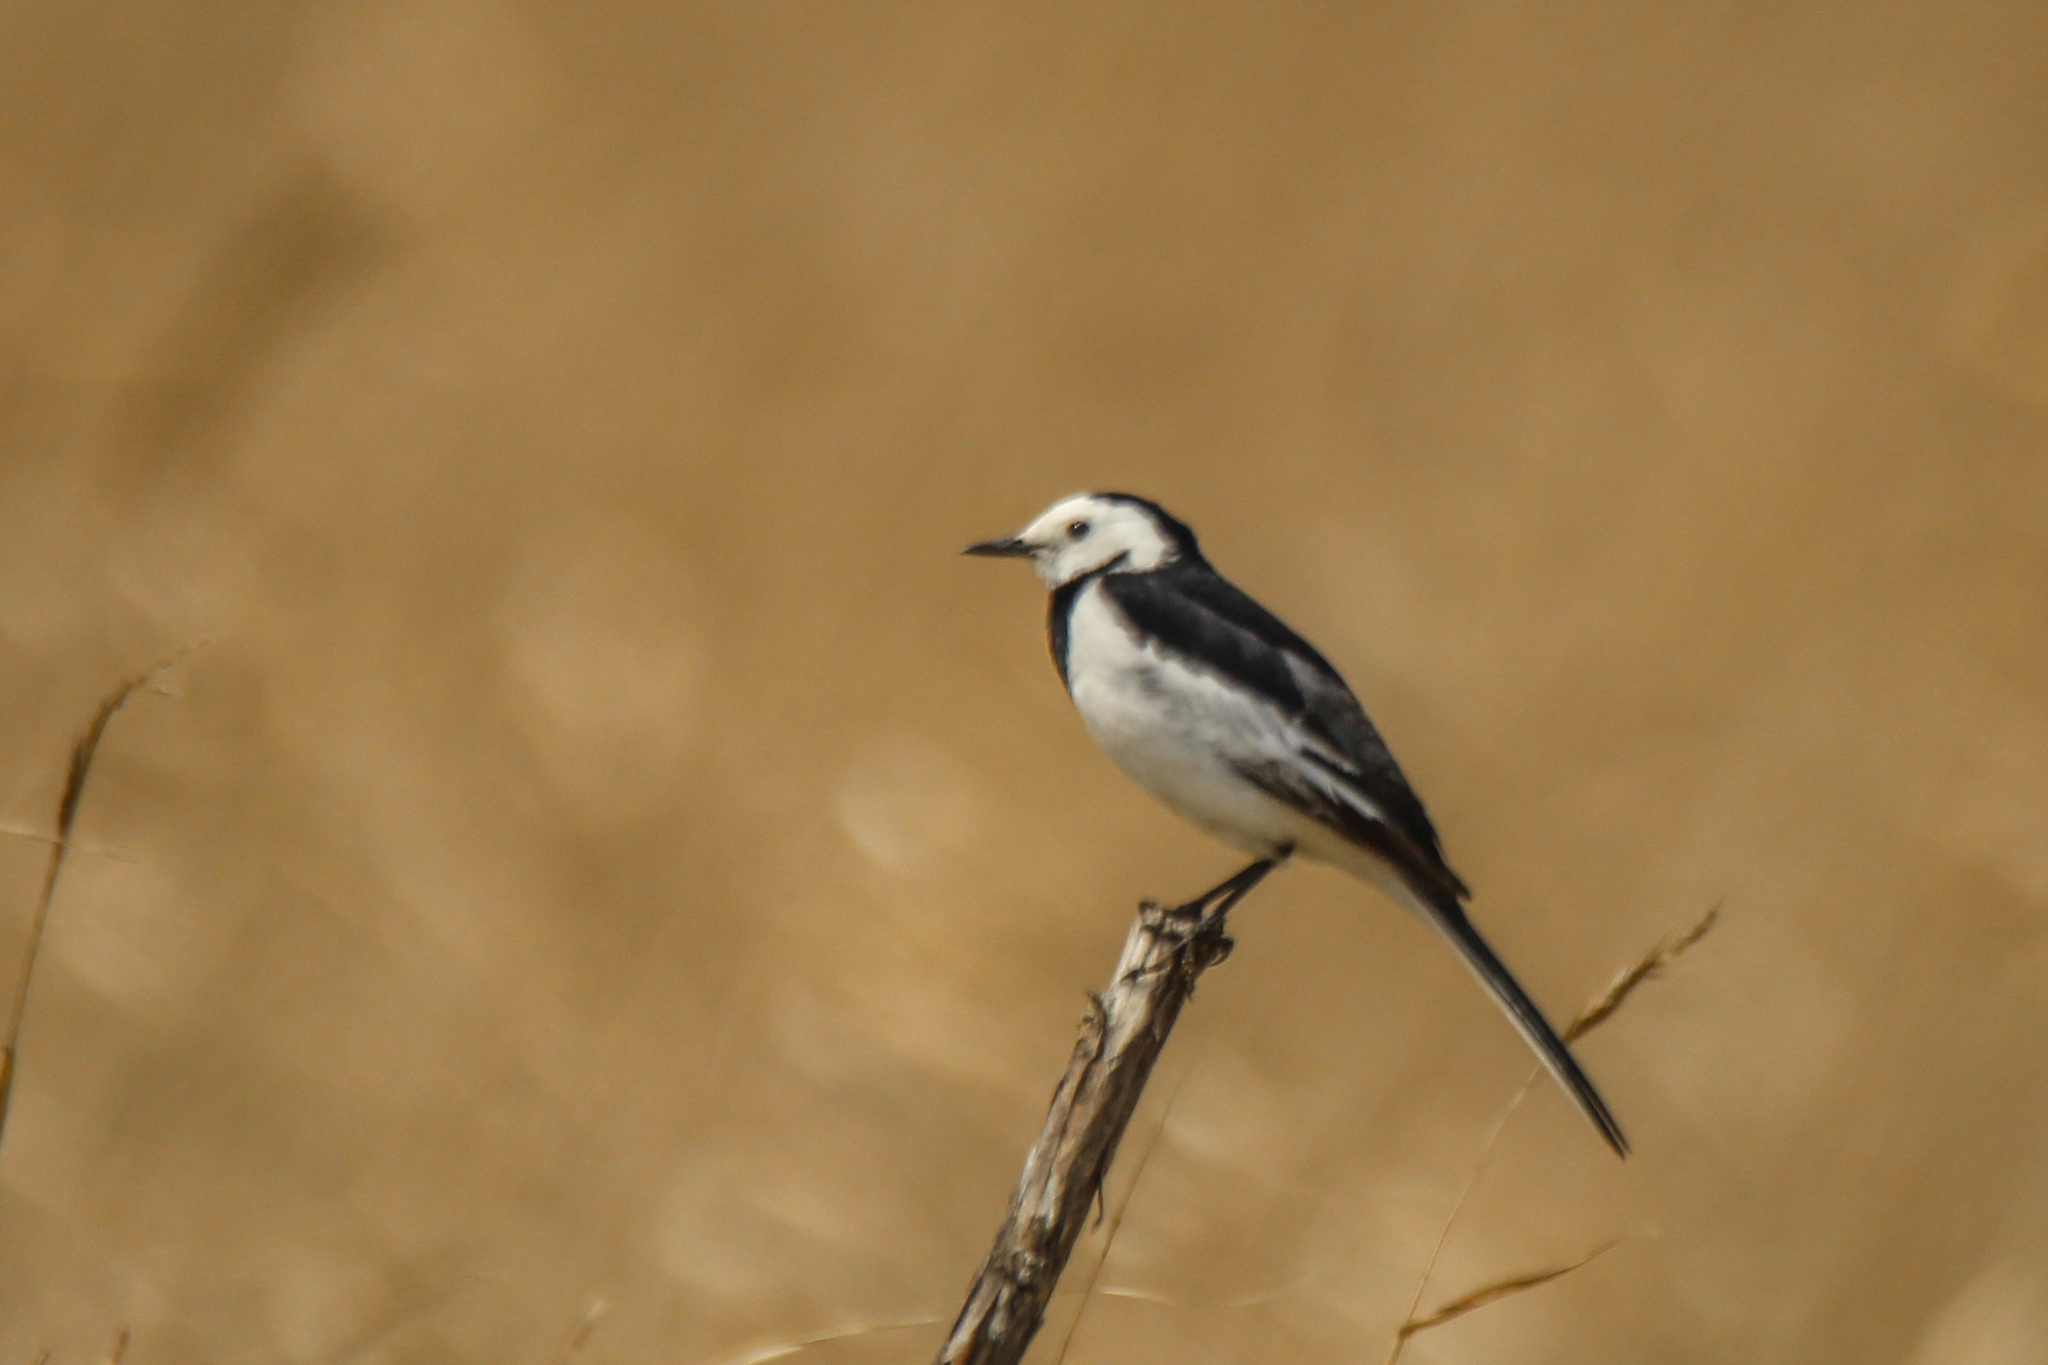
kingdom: Animalia
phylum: Chordata
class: Aves
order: Passeriformes
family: Motacillidae
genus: Motacilla
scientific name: Motacilla alba
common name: White wagtail
